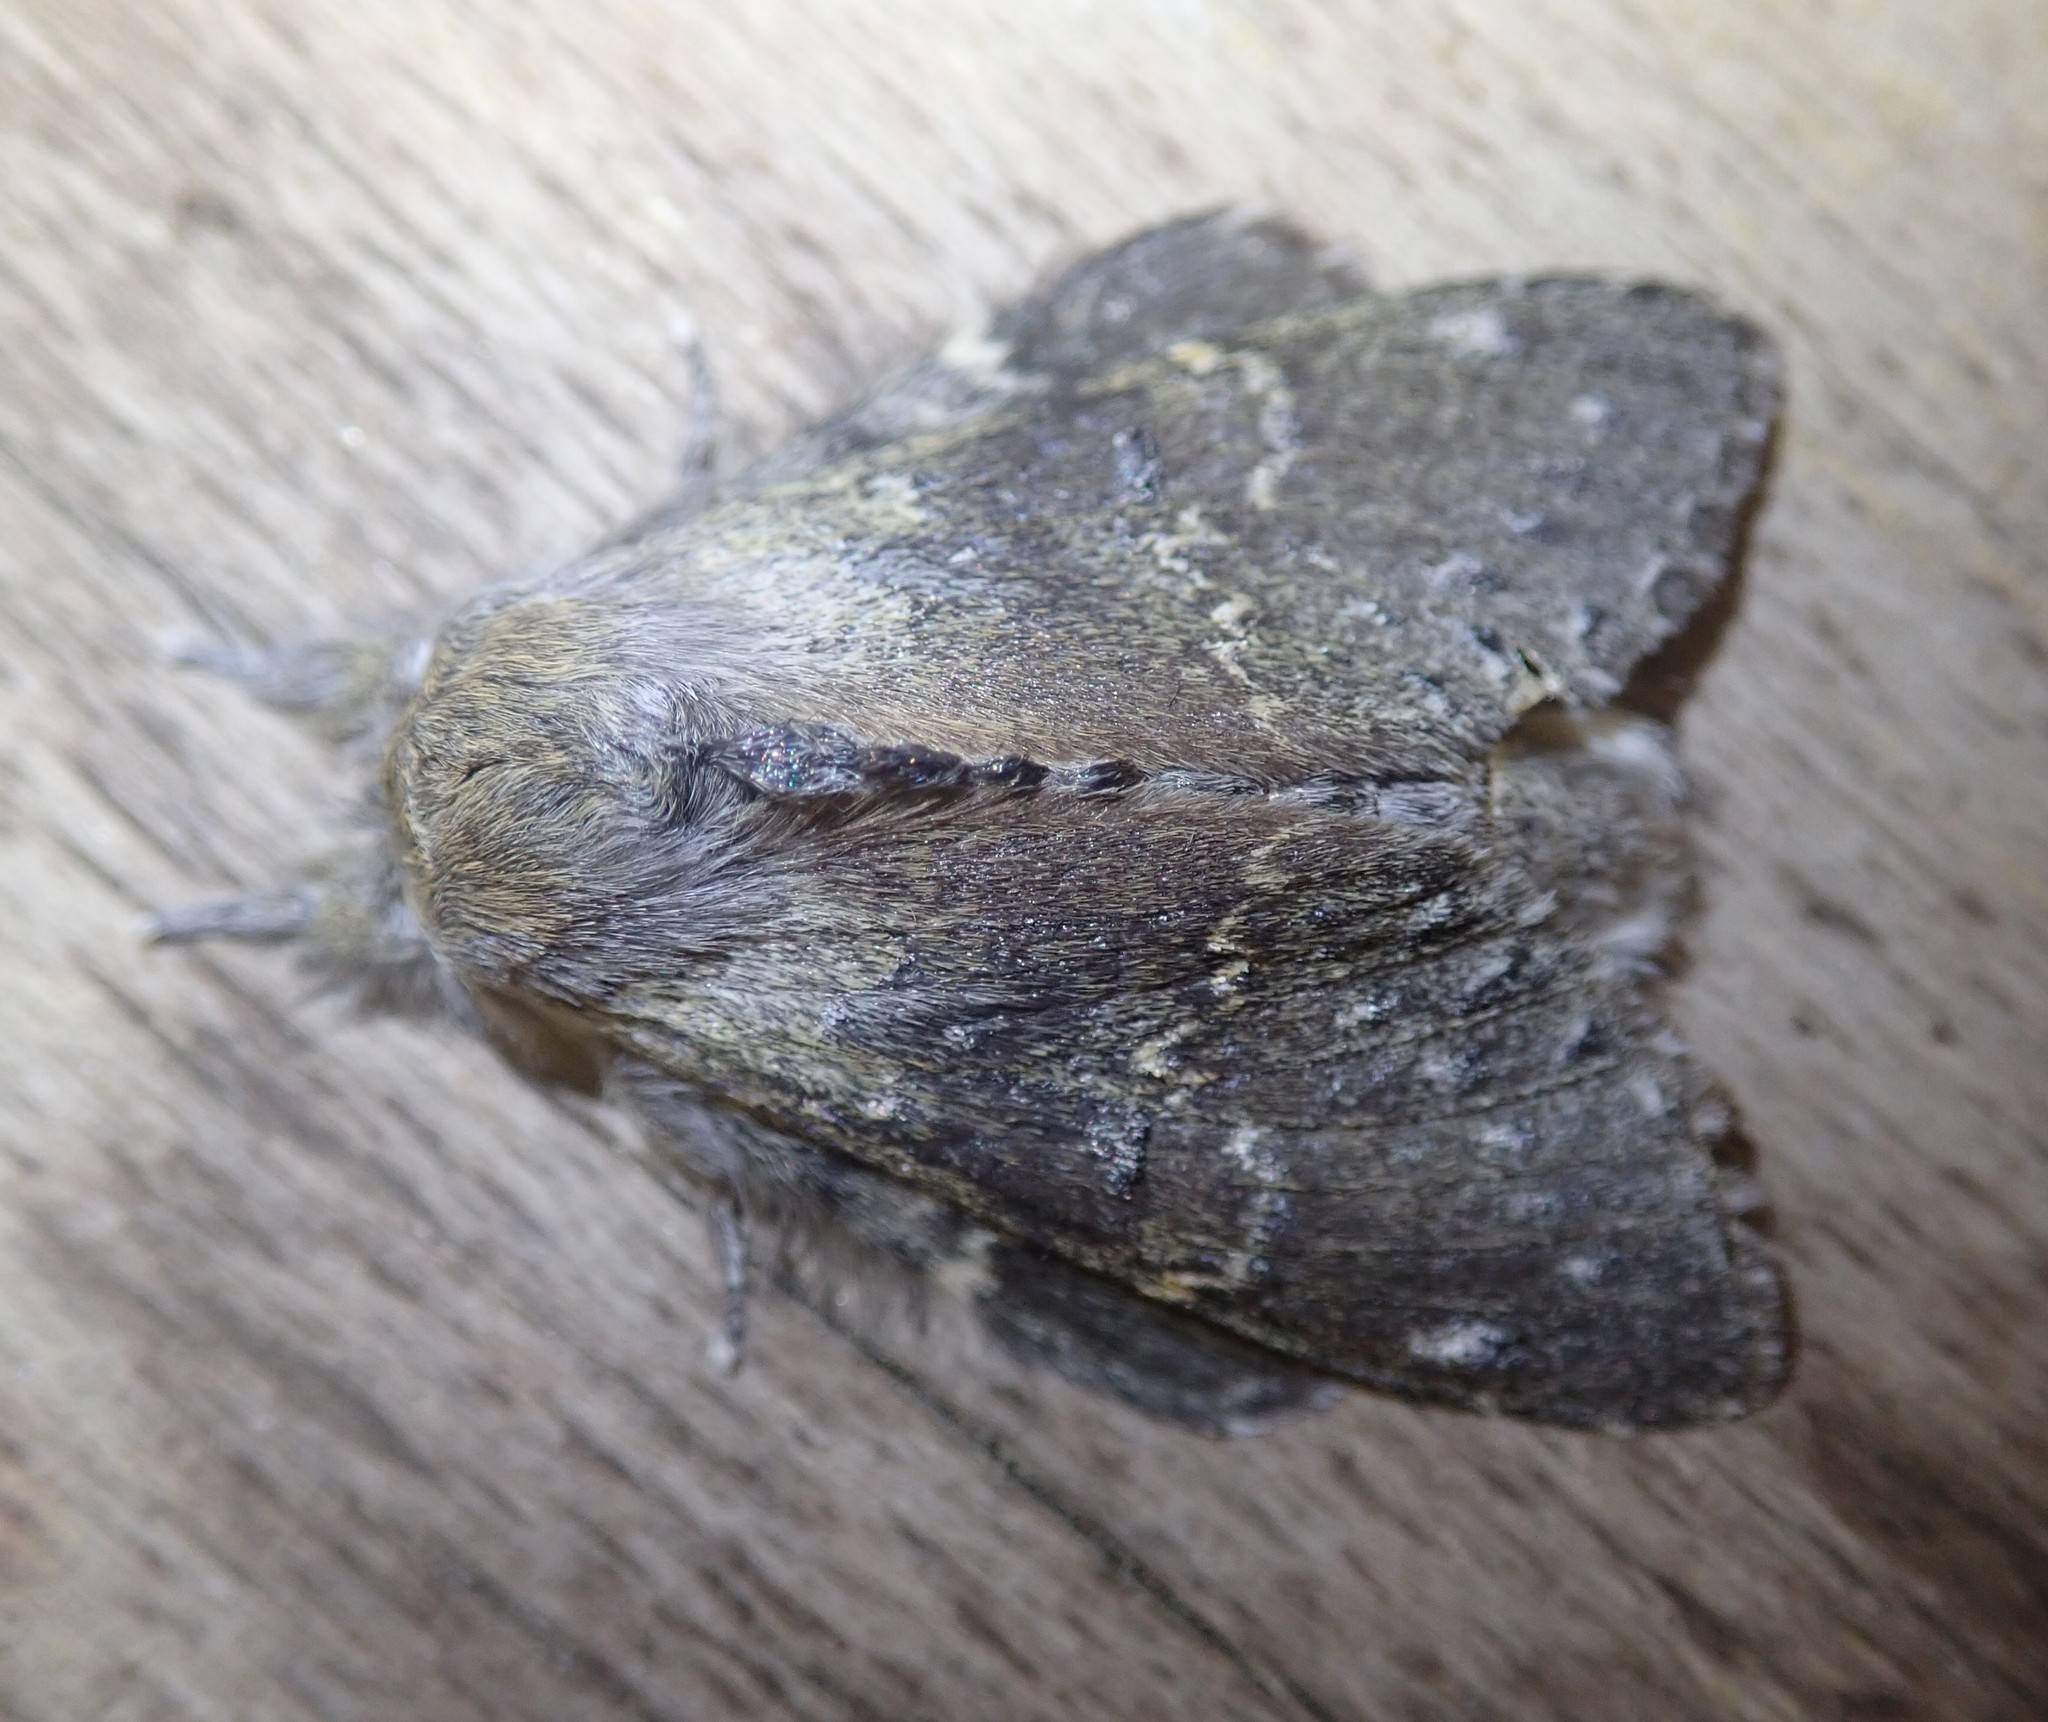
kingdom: Animalia
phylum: Arthropoda
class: Insecta
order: Lepidoptera
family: Notodontidae
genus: Stauropus
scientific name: Stauropus fagi
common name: Lobster moth
